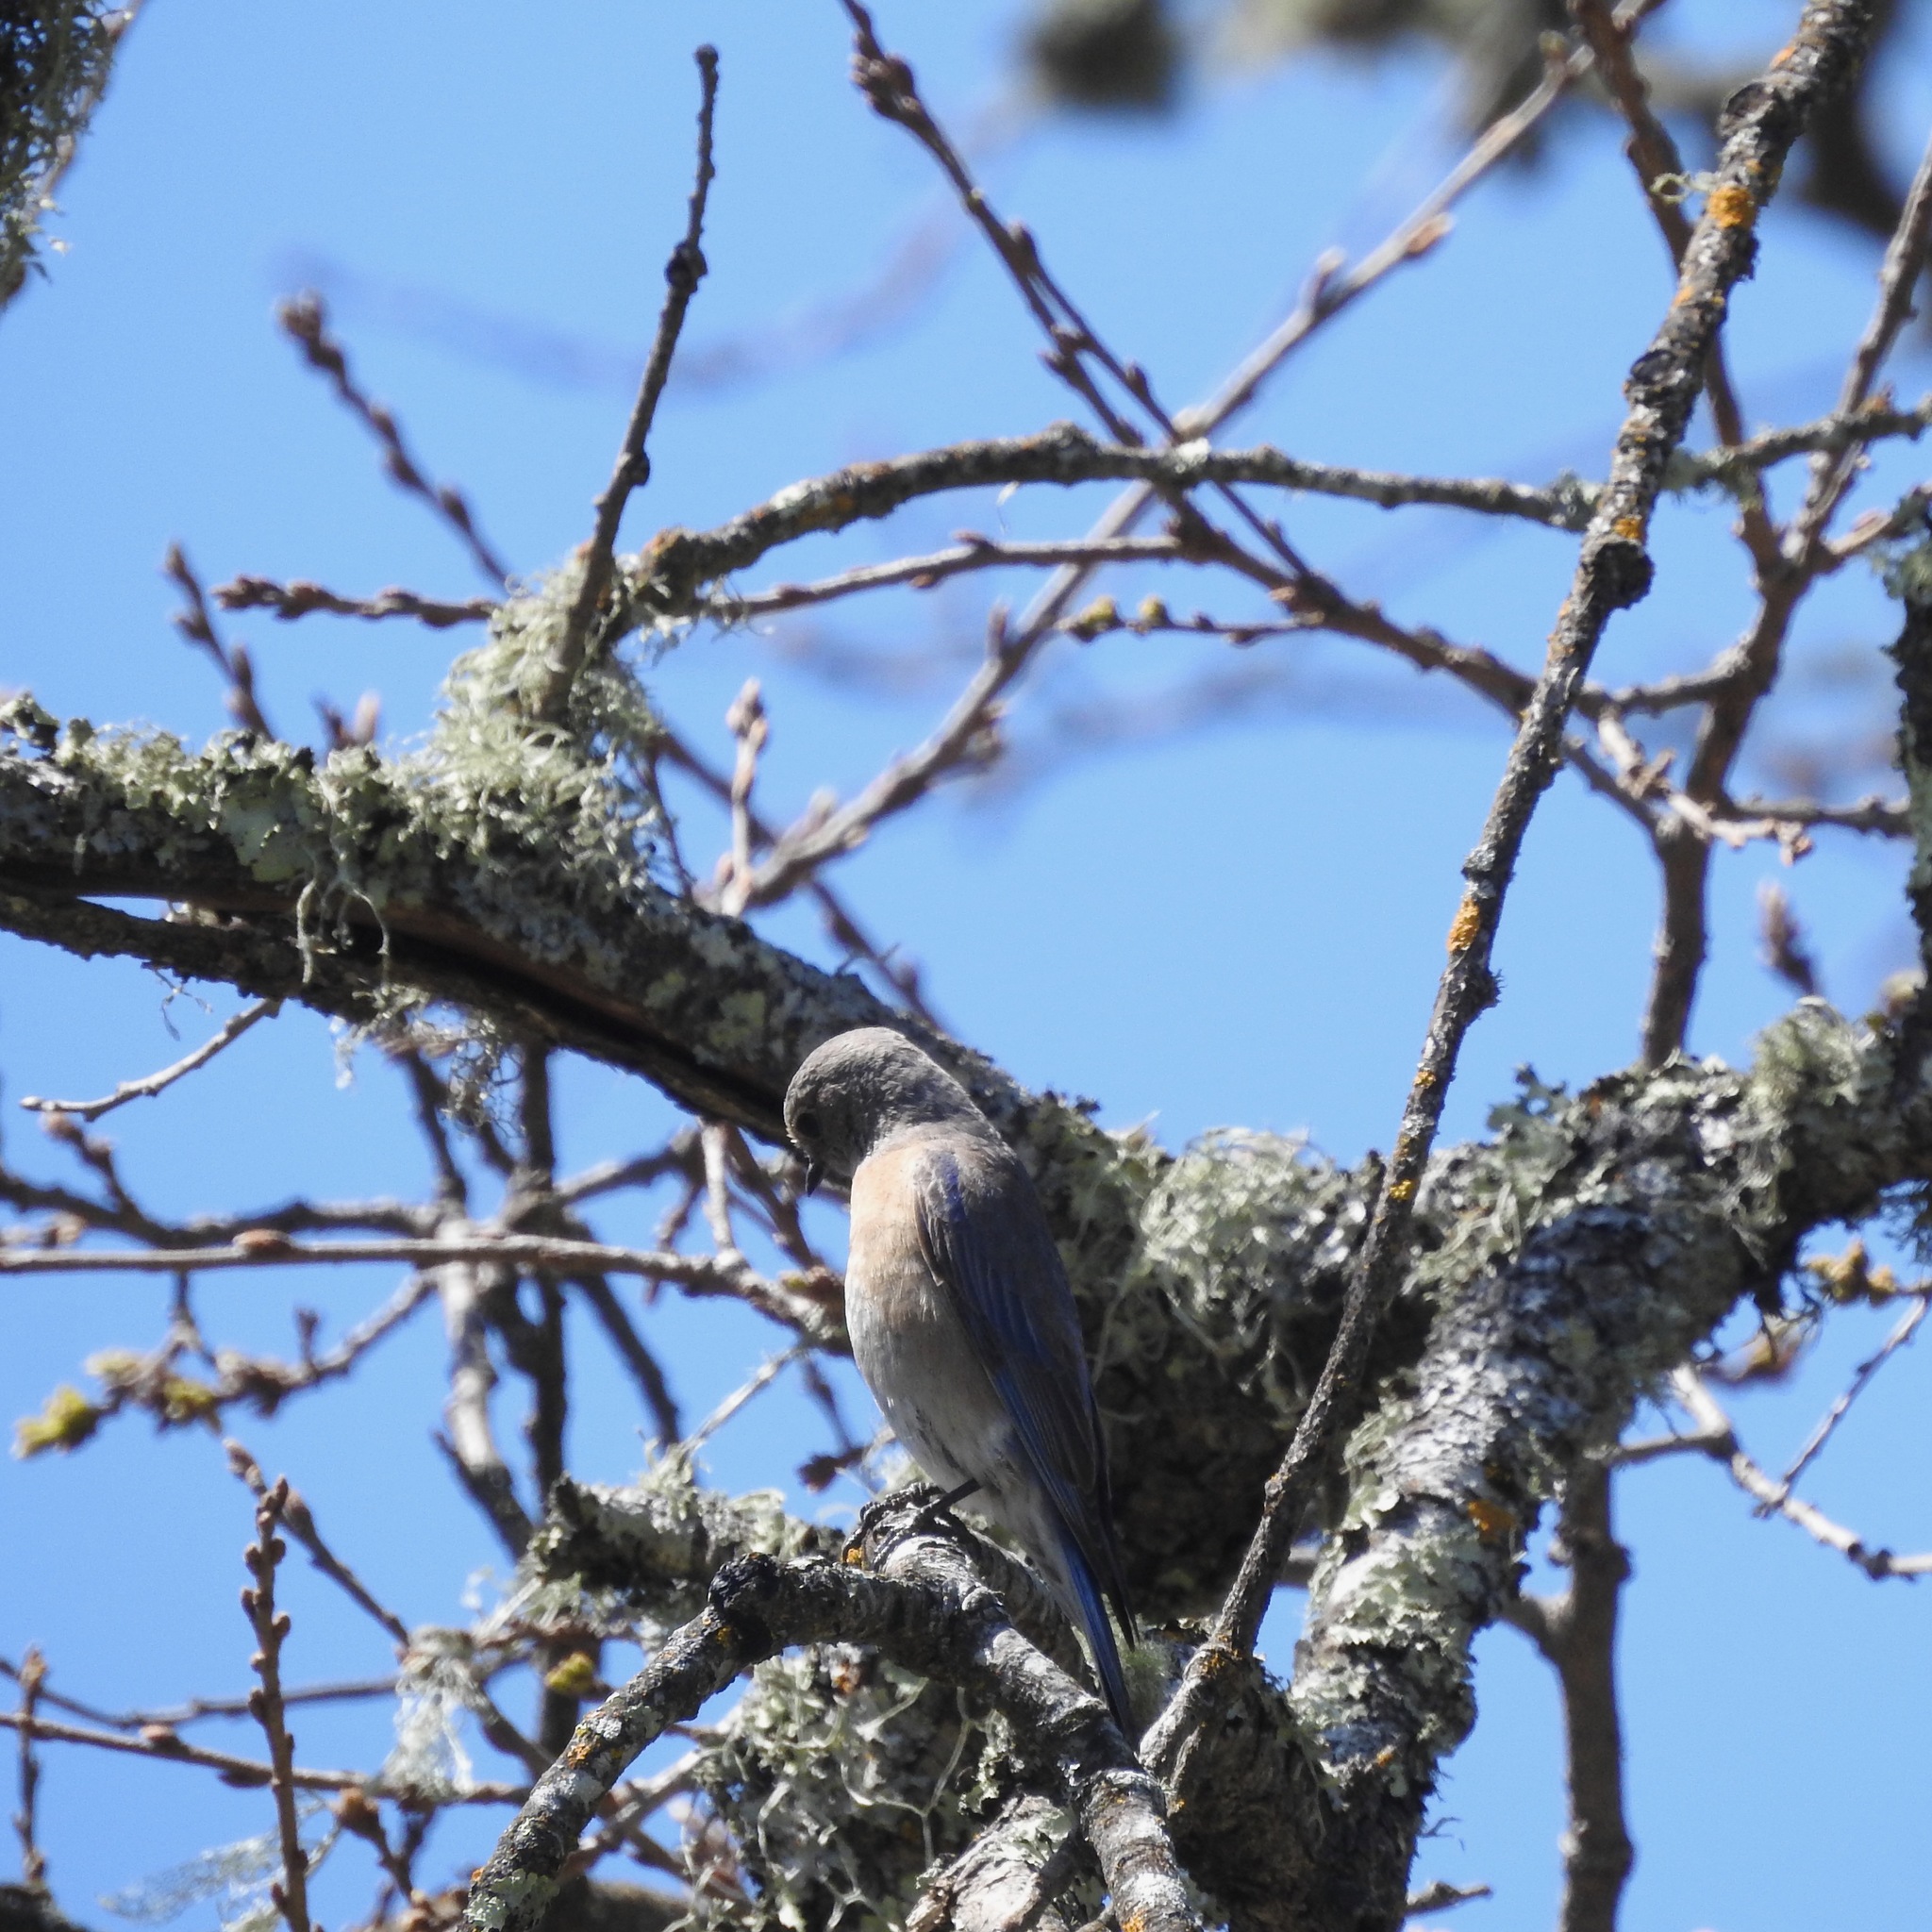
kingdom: Animalia
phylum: Chordata
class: Aves
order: Passeriformes
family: Turdidae
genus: Sialia
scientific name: Sialia mexicana
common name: Western bluebird
